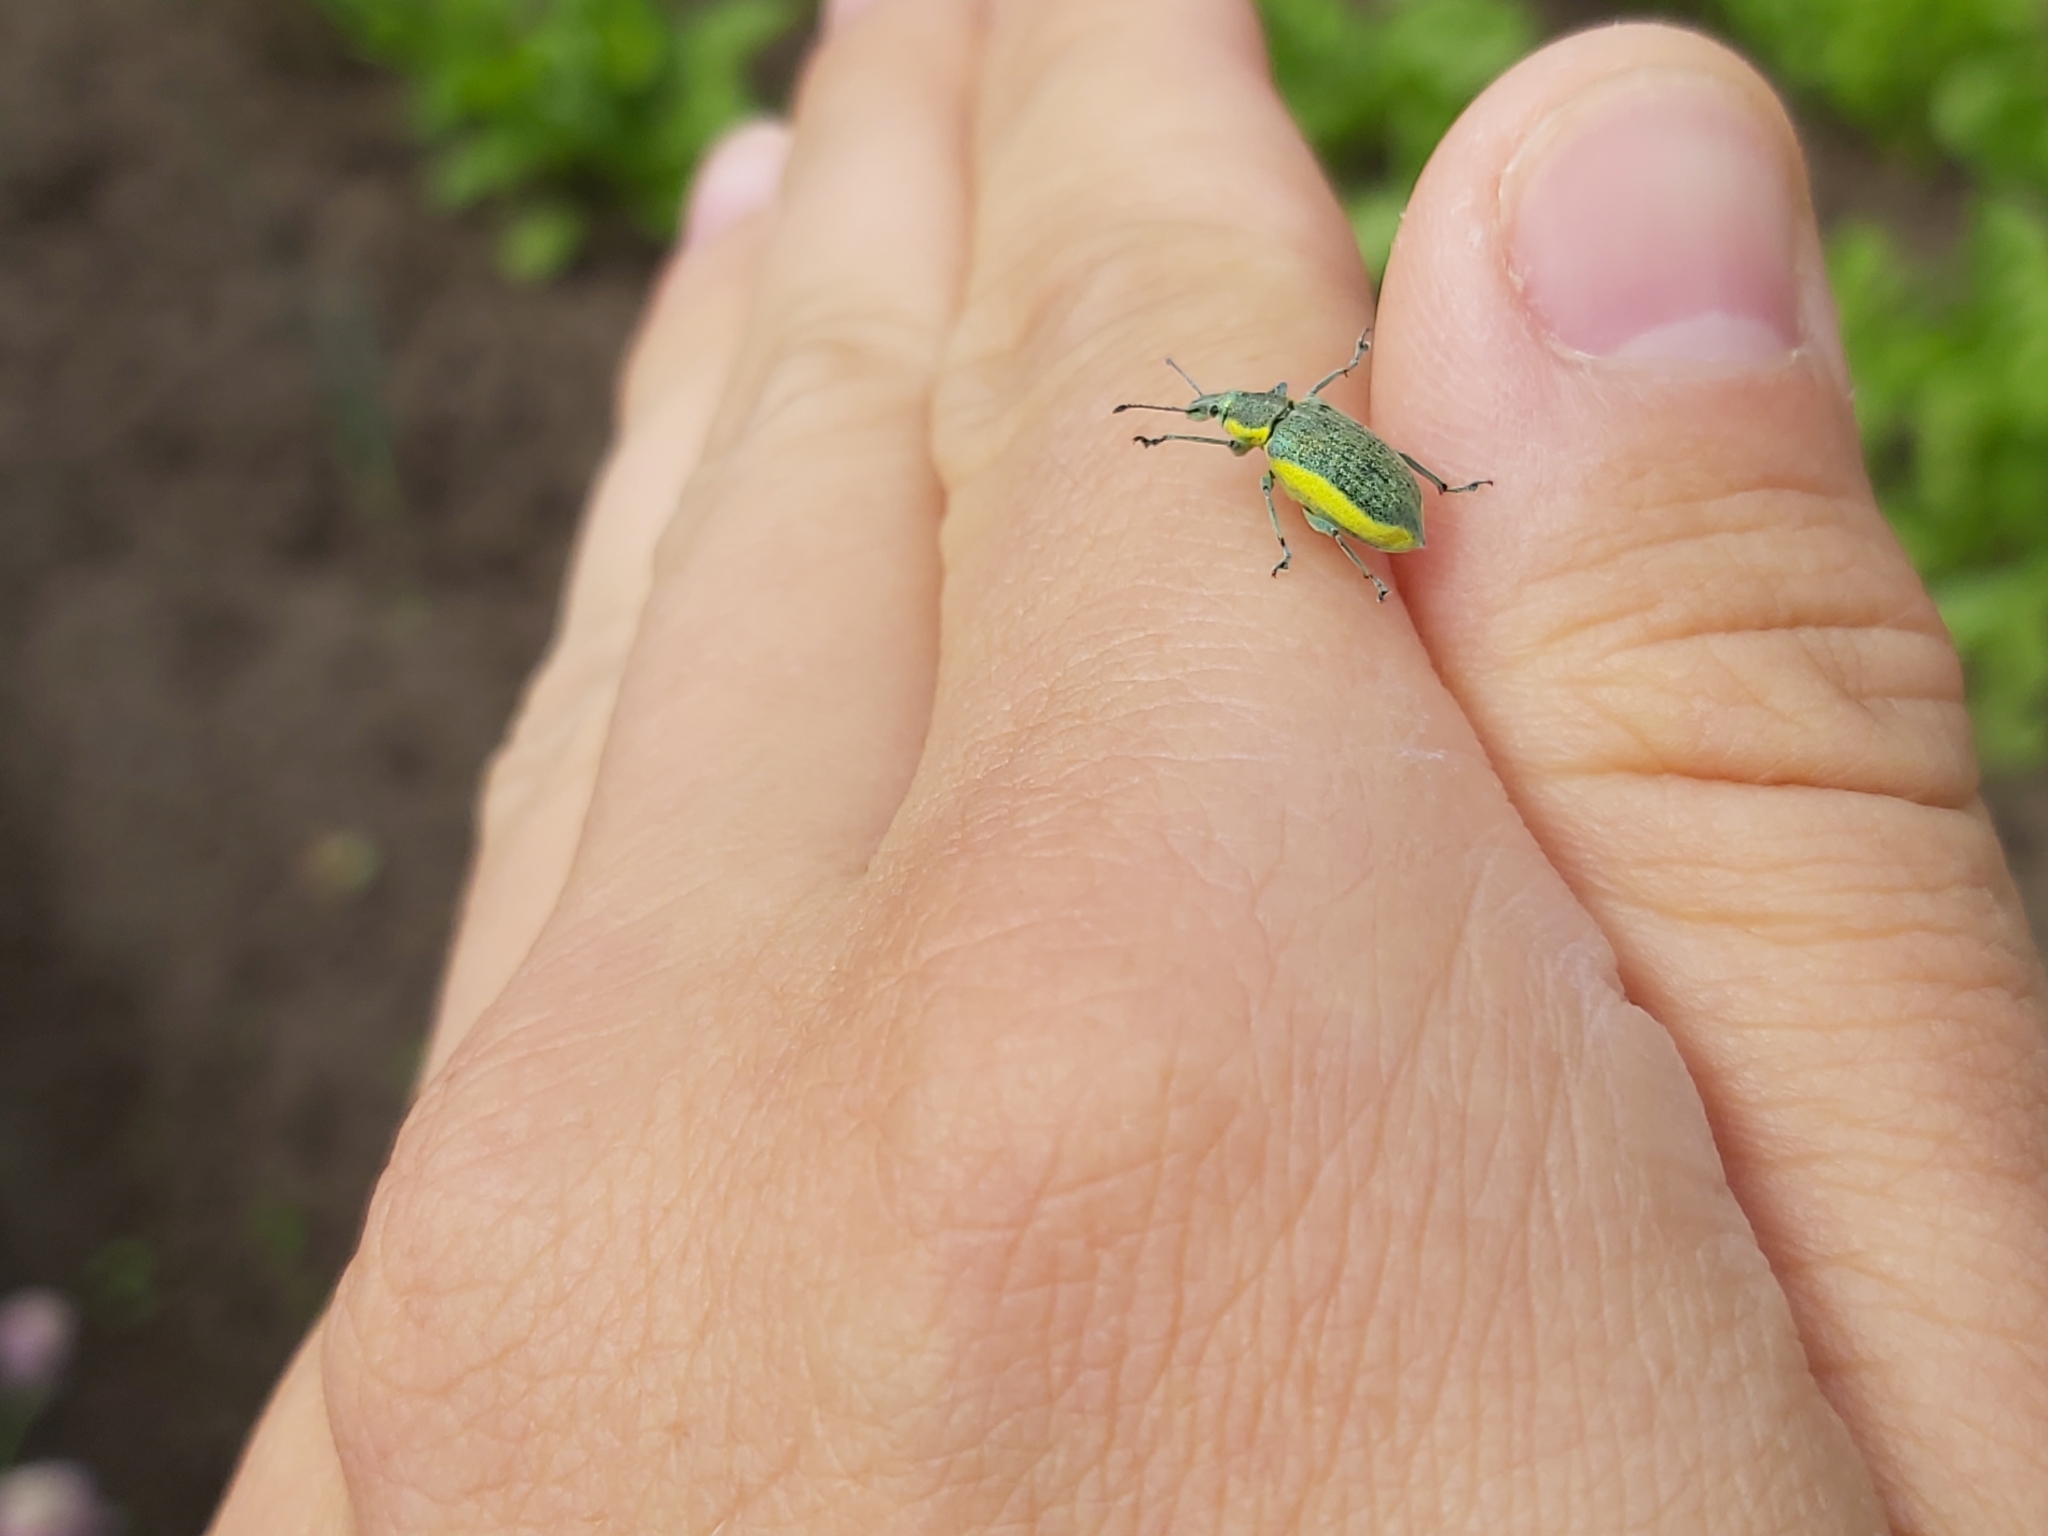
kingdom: Animalia
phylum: Arthropoda
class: Insecta
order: Coleoptera
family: Curculionidae
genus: Chlorophanus
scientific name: Chlorophanus viridis
